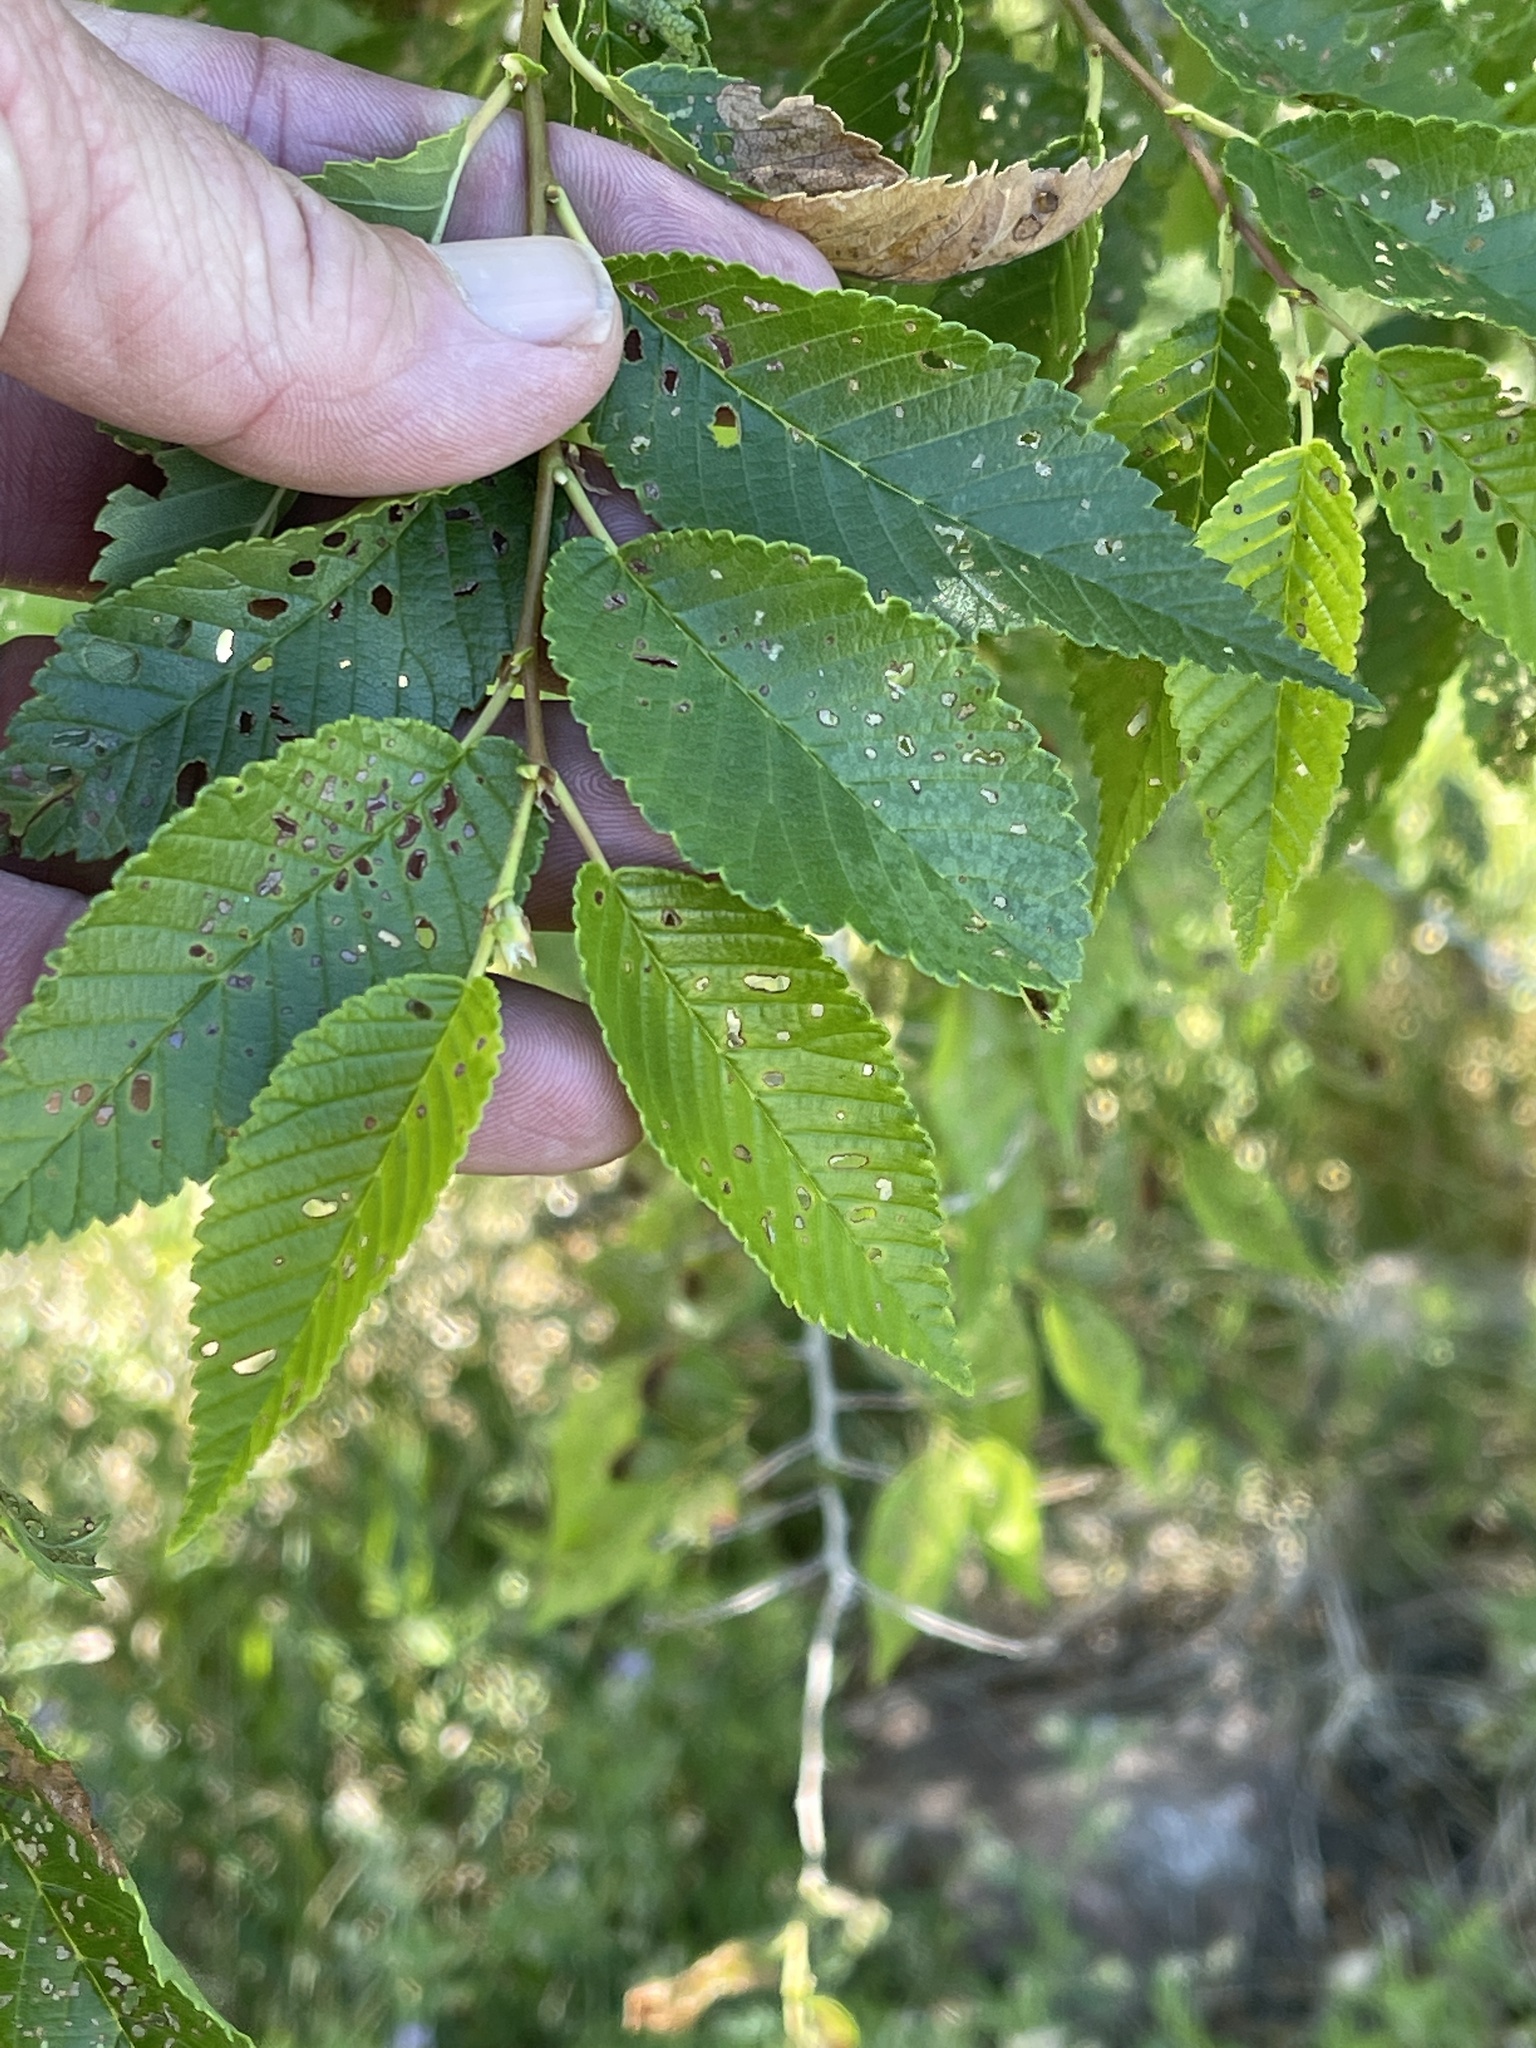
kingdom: Plantae
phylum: Tracheophyta
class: Magnoliopsida
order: Rosales
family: Ulmaceae
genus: Ulmus
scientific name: Ulmus pumila
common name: Siberian elm
